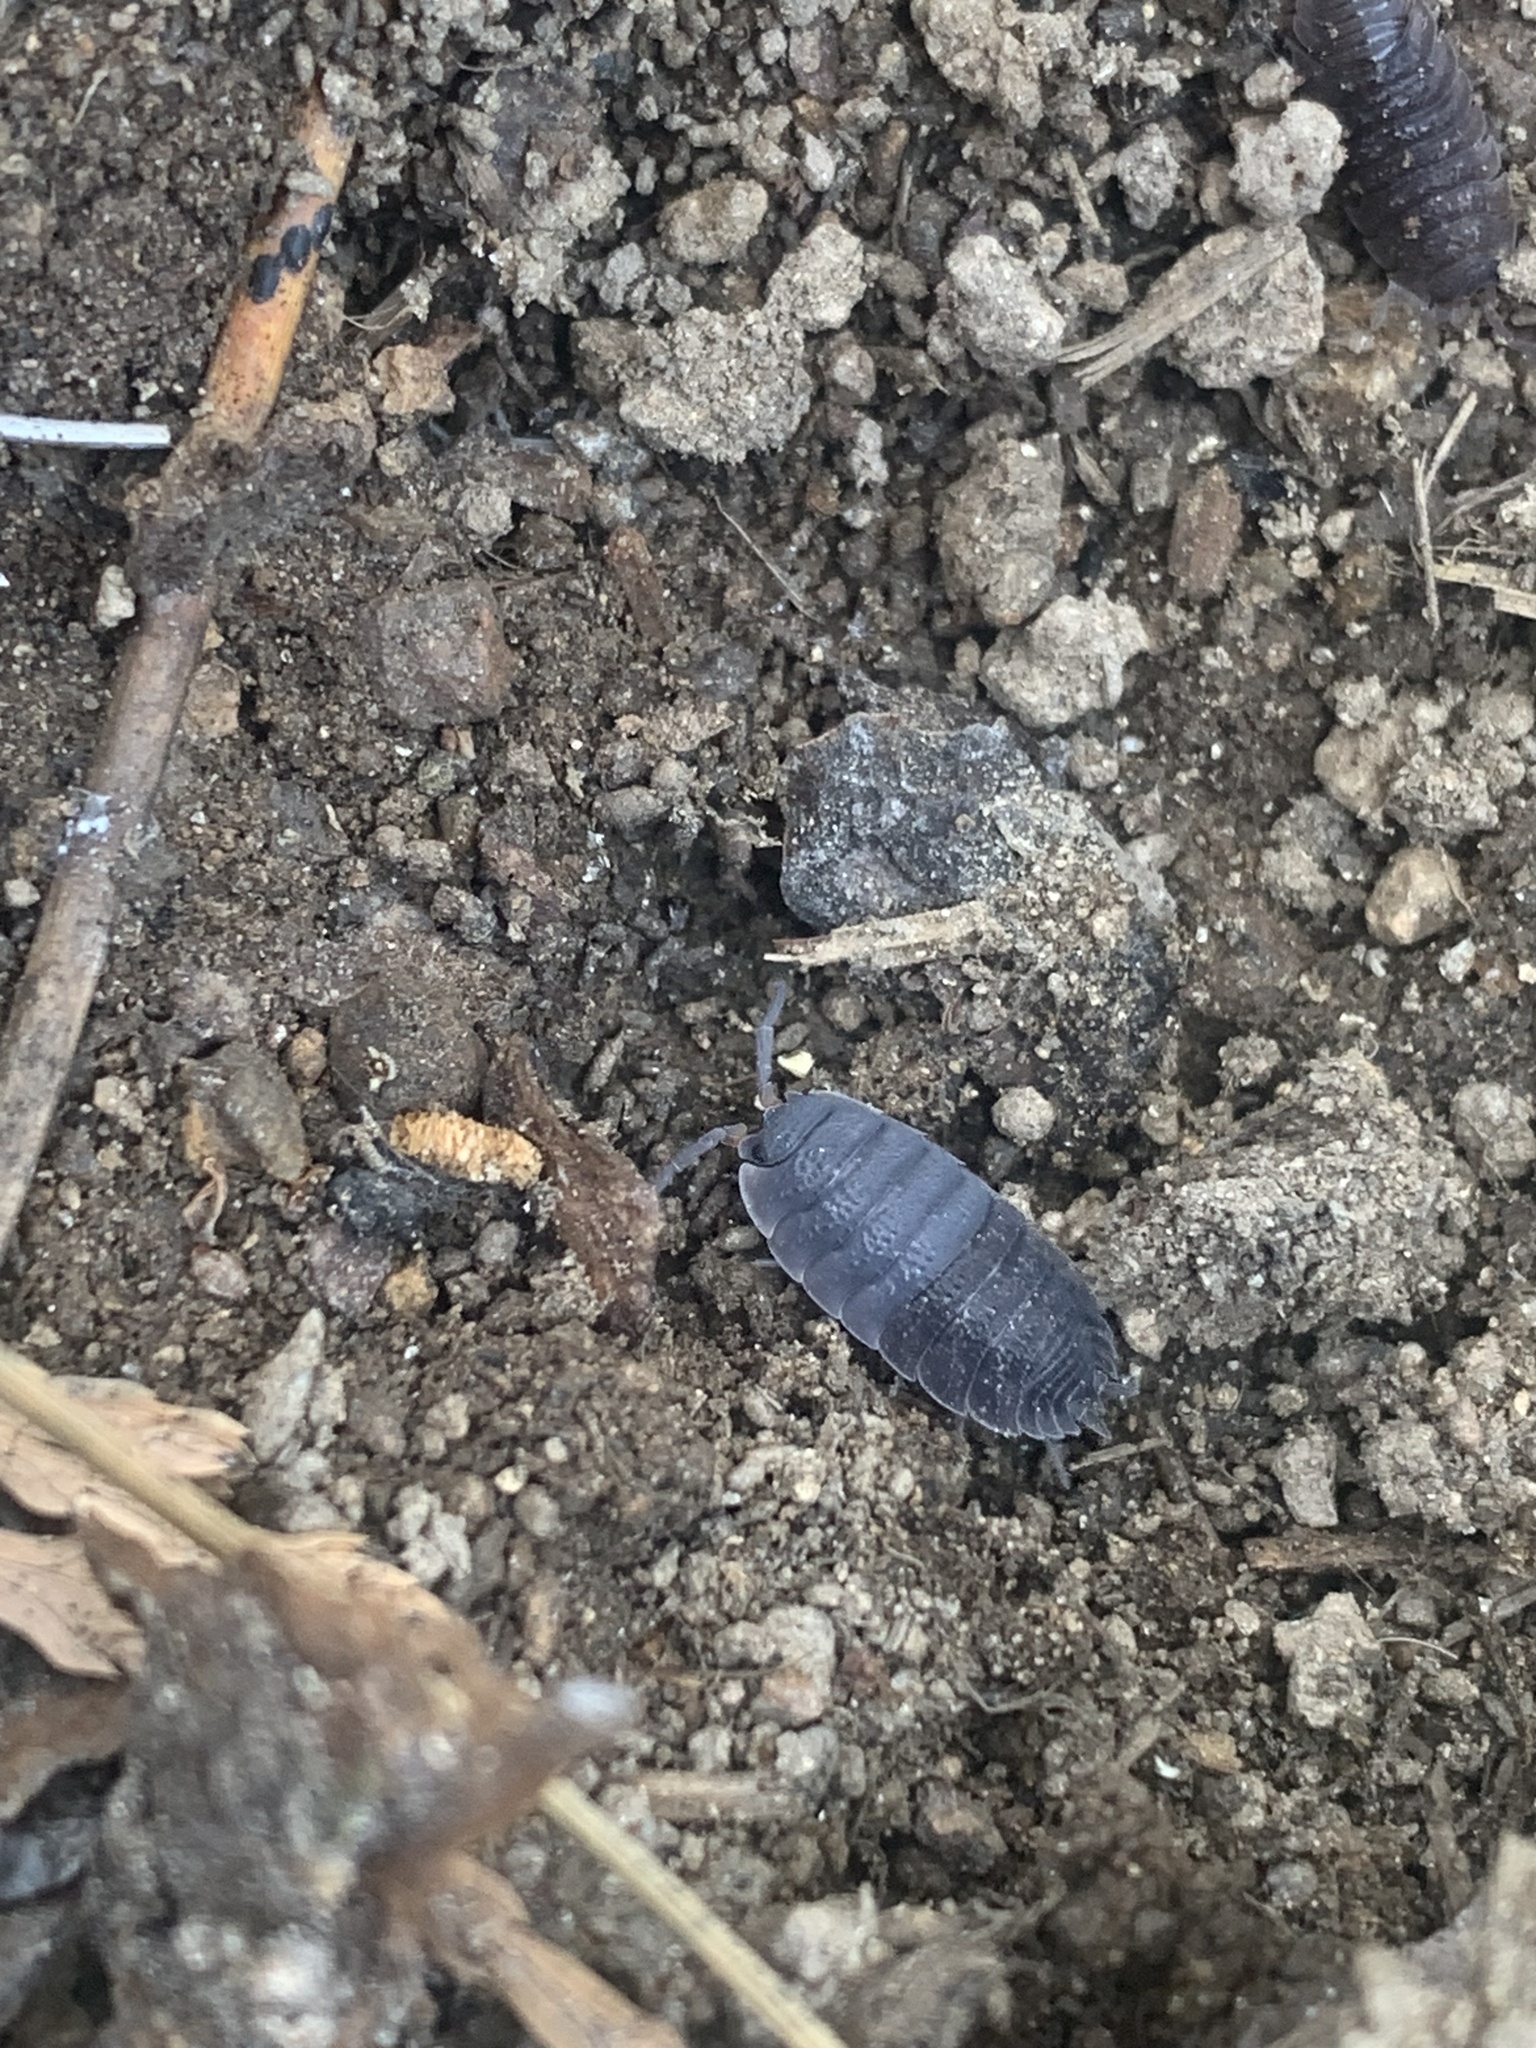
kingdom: Animalia
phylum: Arthropoda
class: Malacostraca
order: Isopoda
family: Porcellionidae
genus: Porcellio
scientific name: Porcellio scaber
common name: Common rough woodlouse
